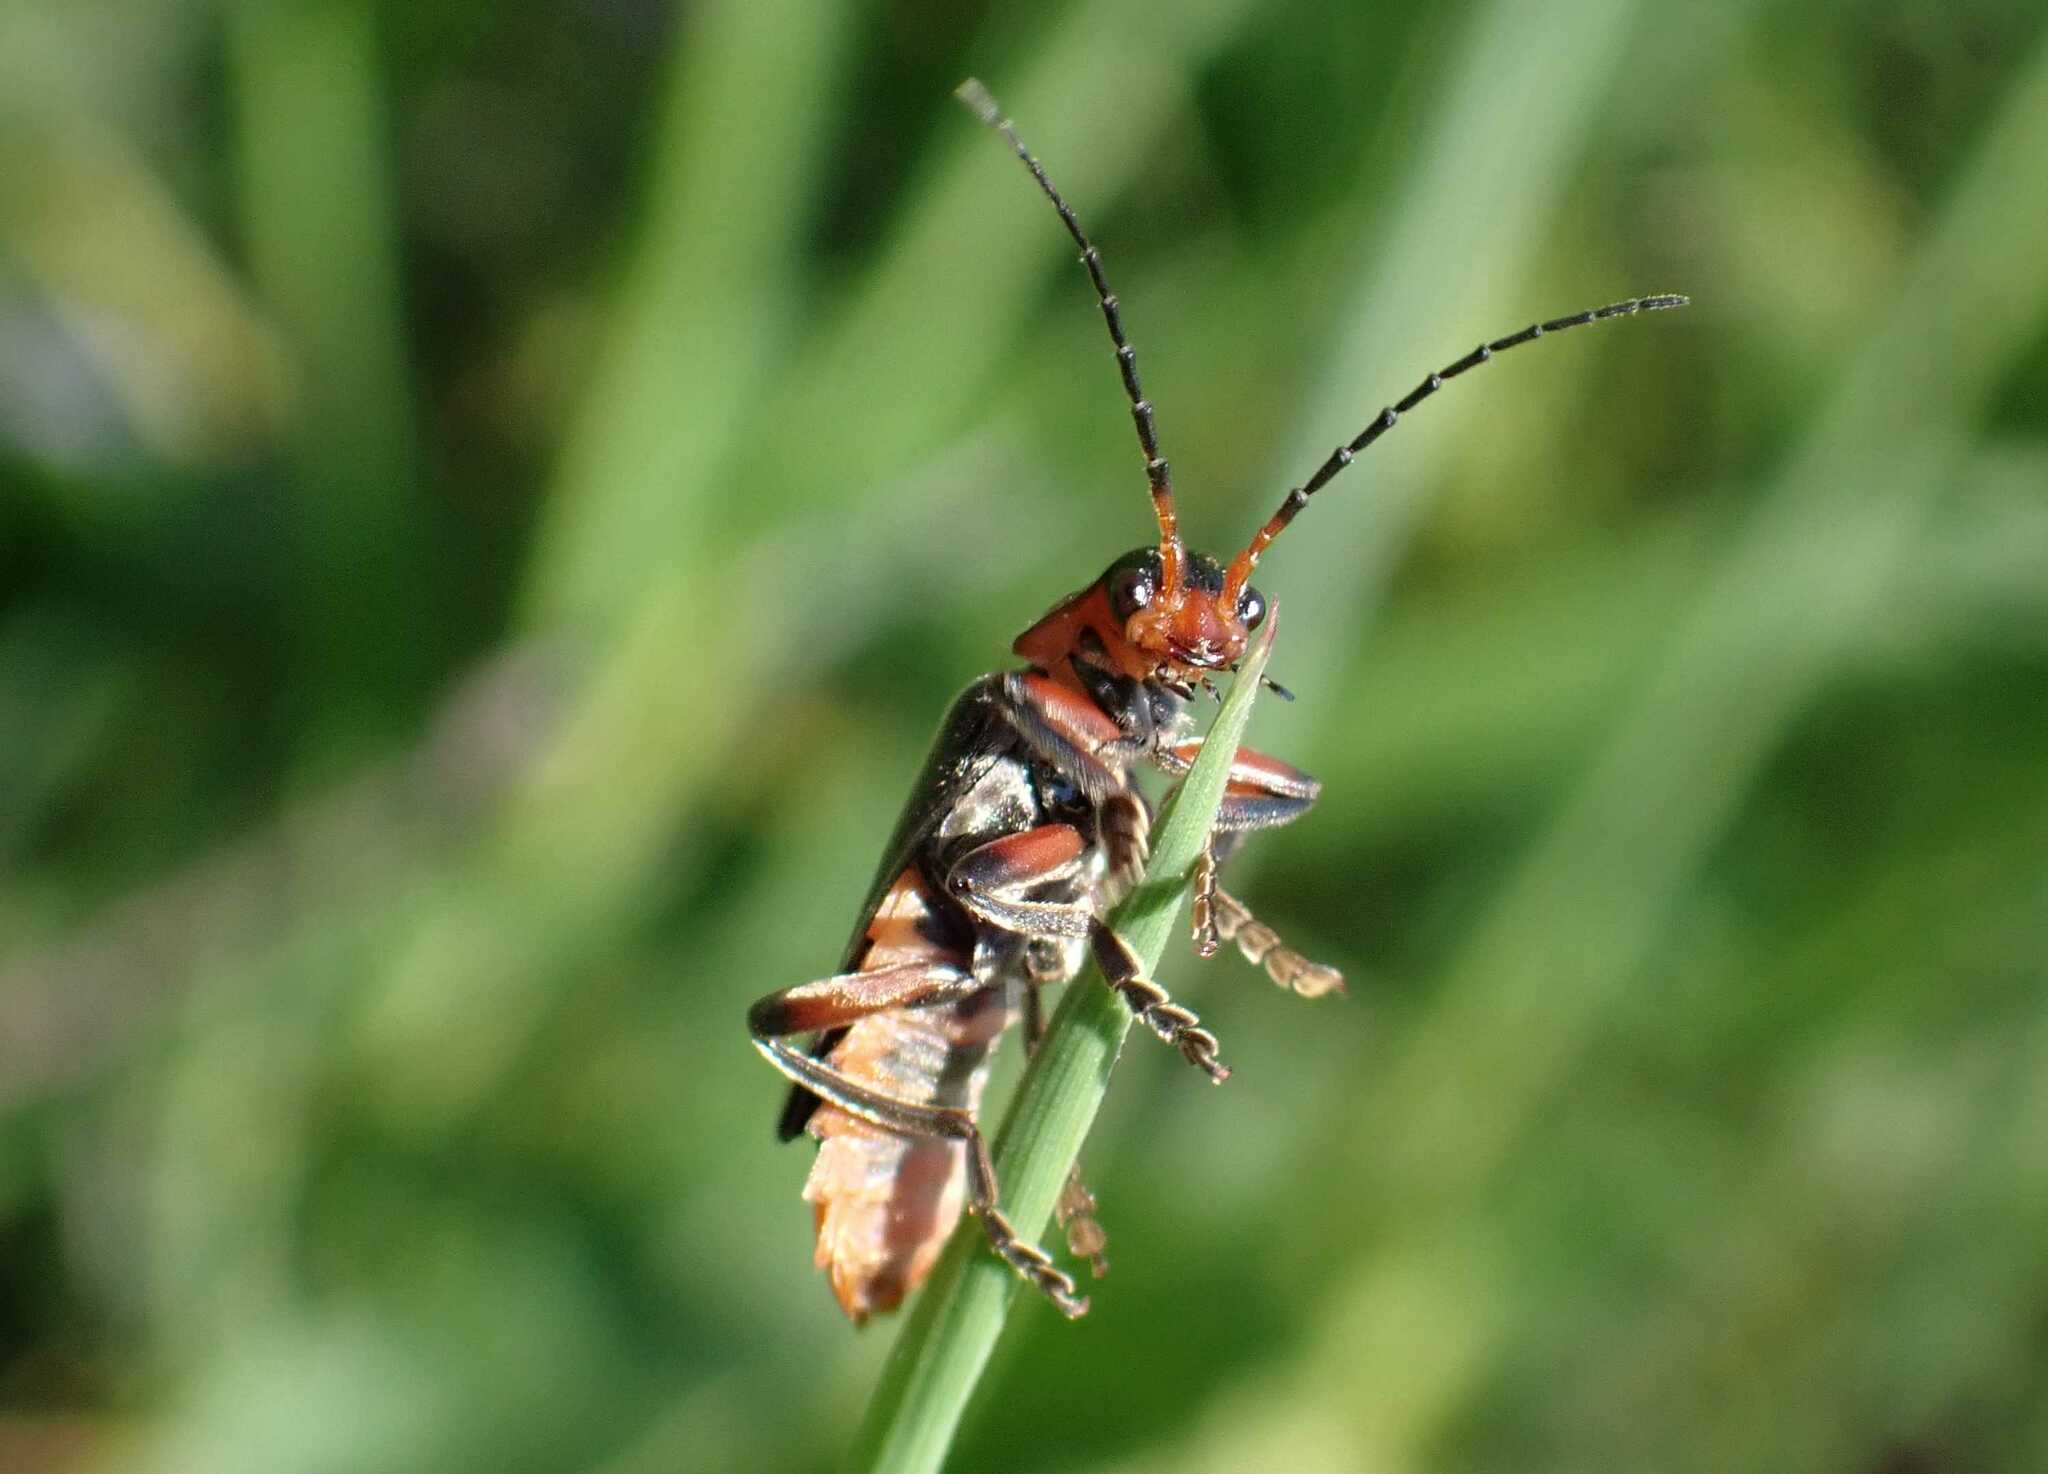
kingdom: Animalia
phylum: Arthropoda
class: Insecta
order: Coleoptera
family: Cantharidae
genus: Cantharis
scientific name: Cantharis rustica
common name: Soldier beetle
